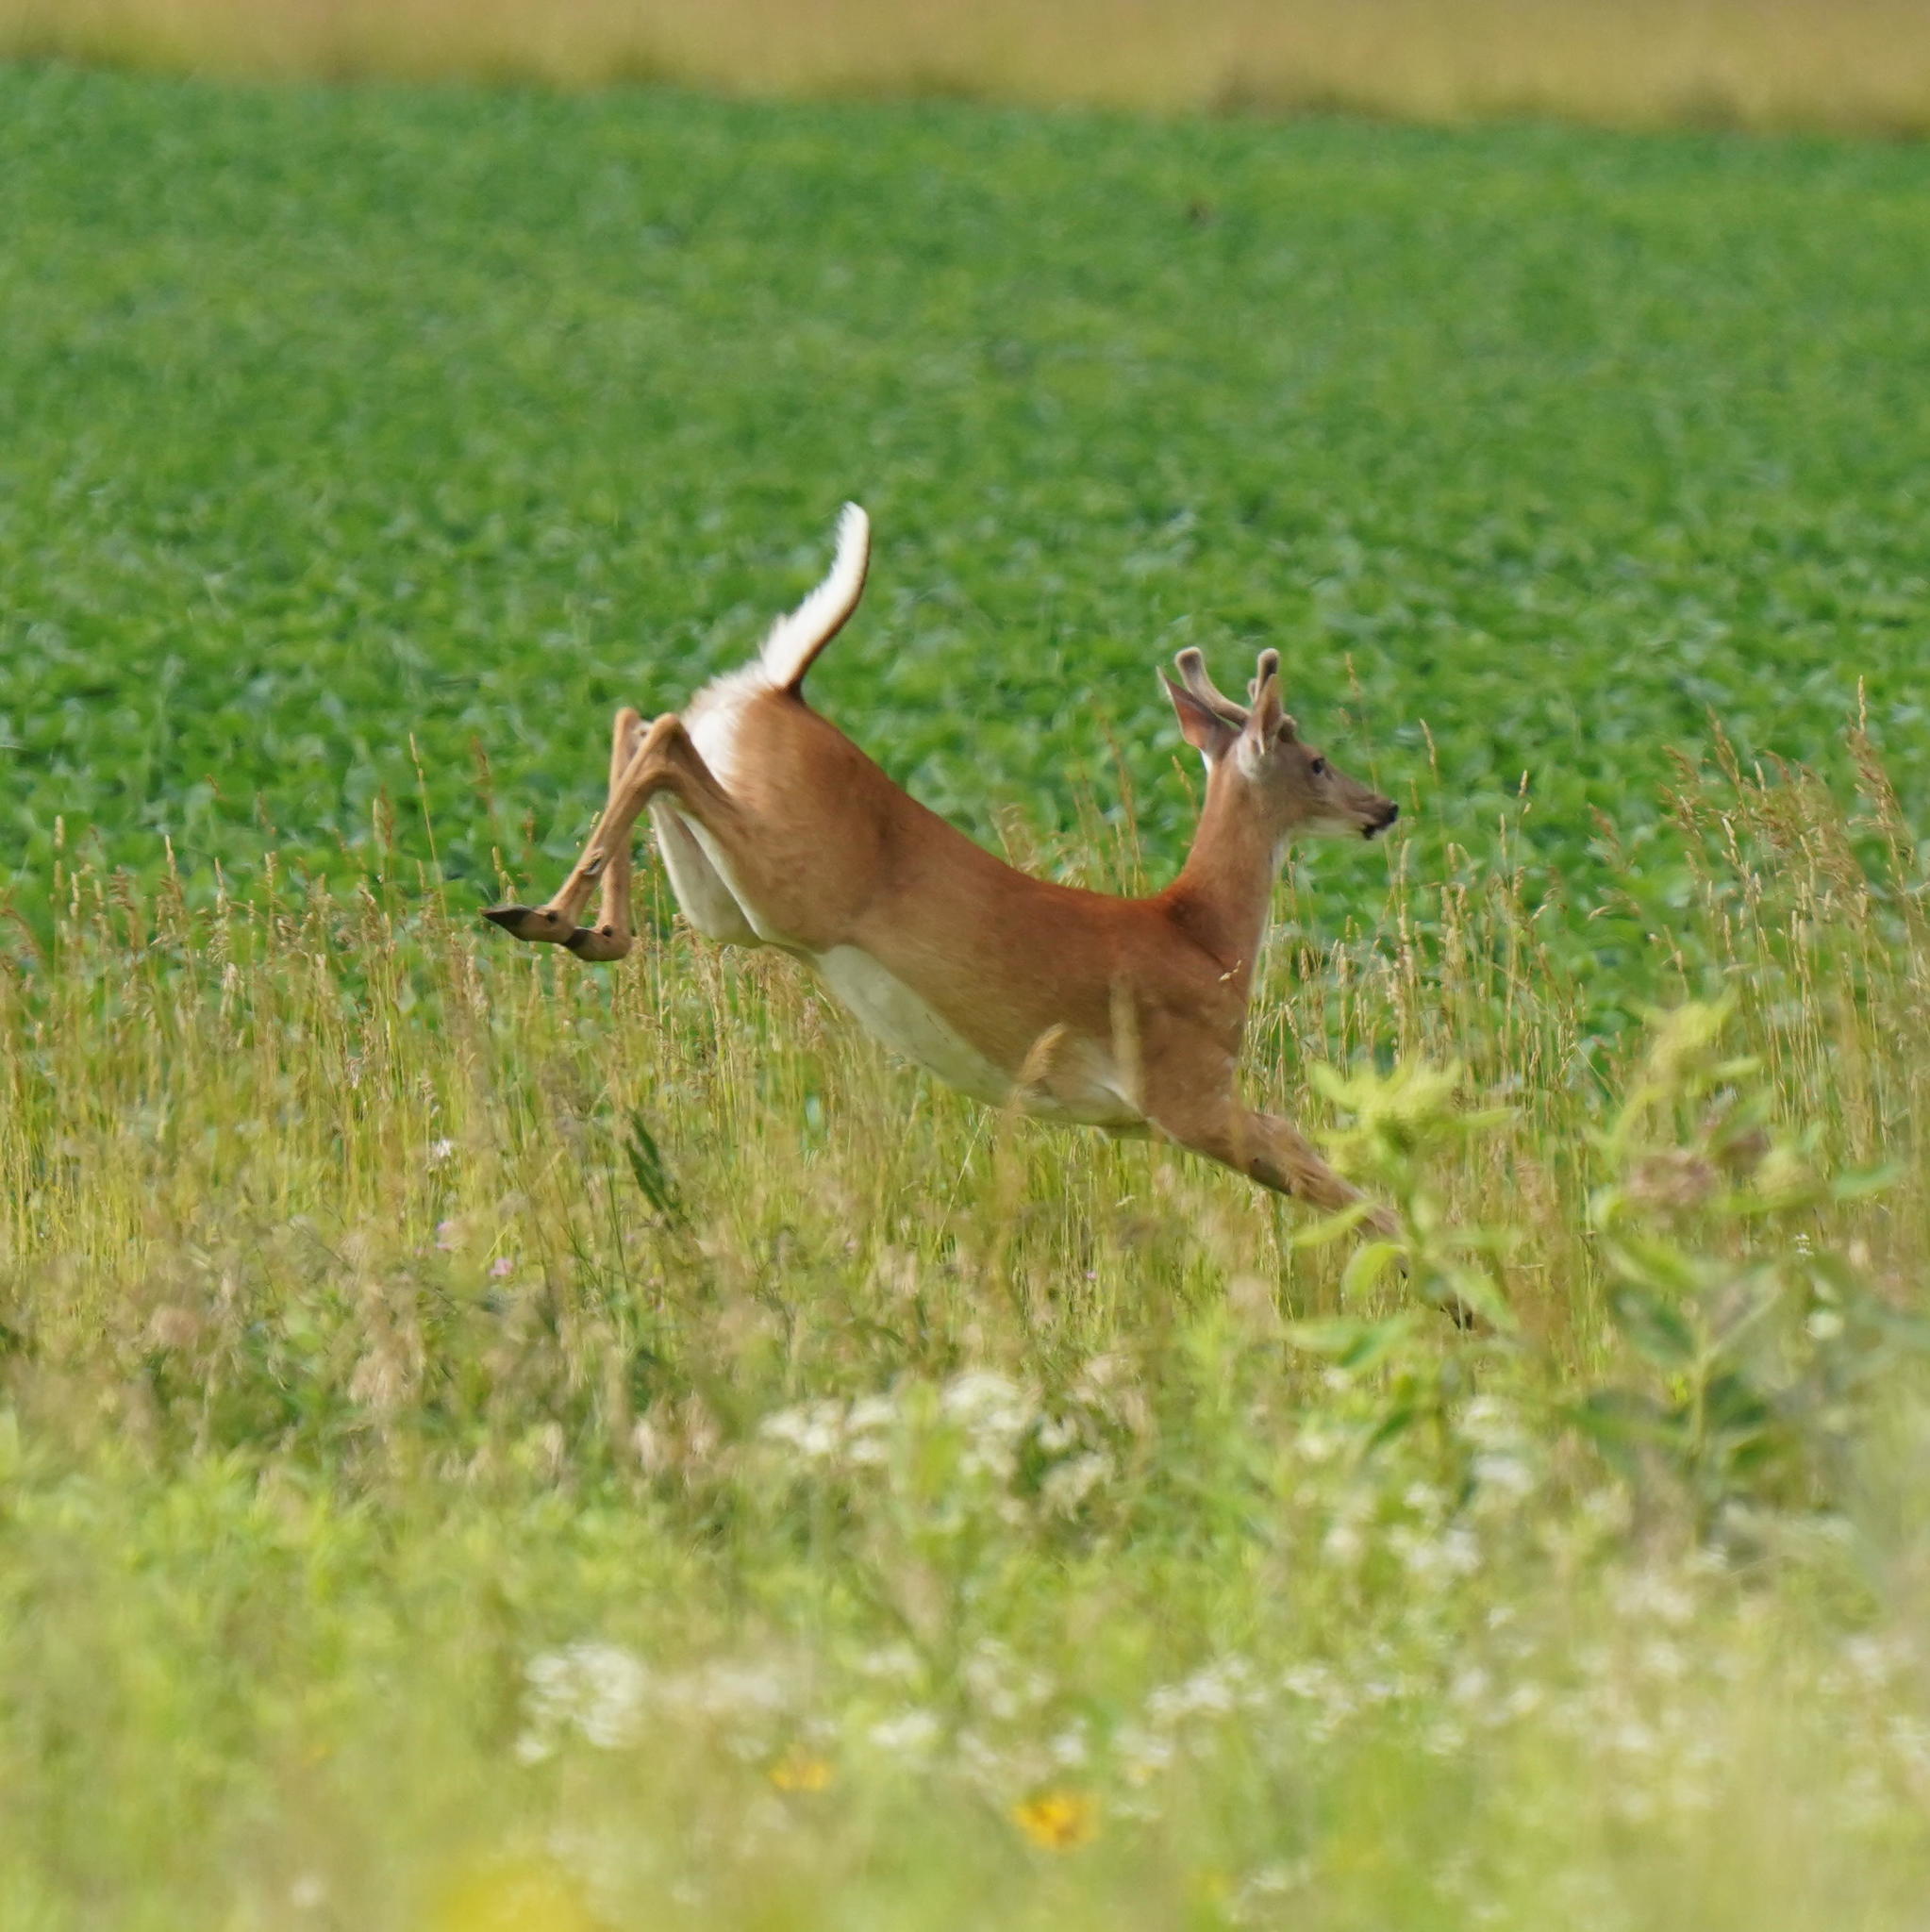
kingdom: Animalia
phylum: Chordata
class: Mammalia
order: Artiodactyla
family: Cervidae
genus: Odocoileus
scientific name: Odocoileus virginianus
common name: White-tailed deer
